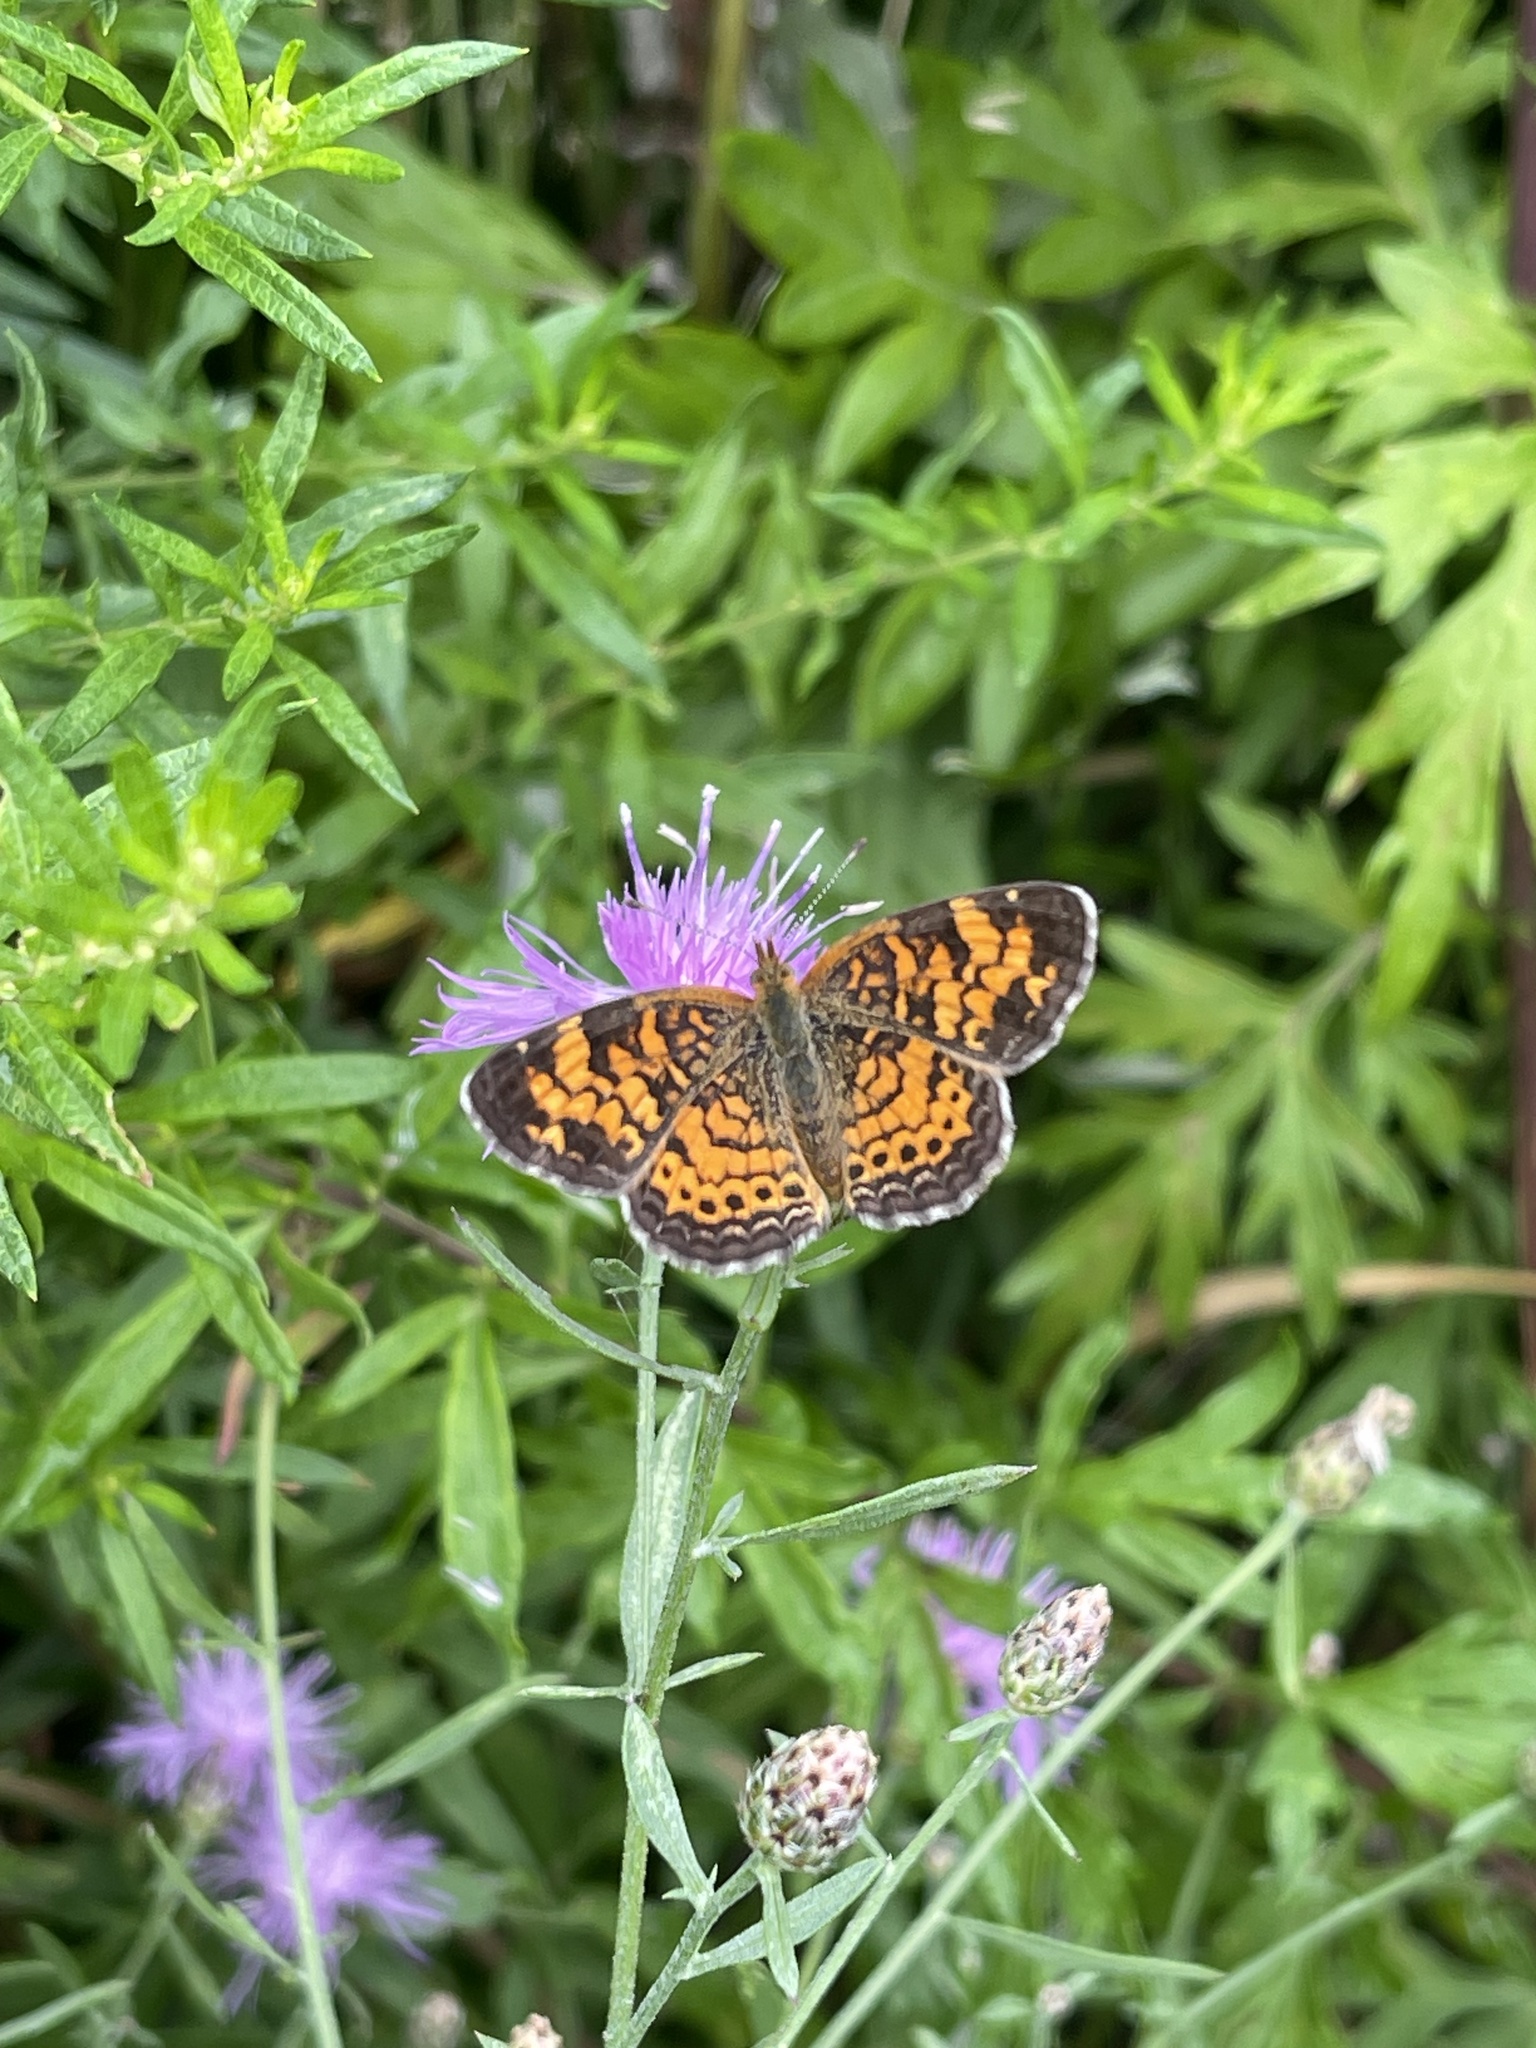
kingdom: Animalia
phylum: Arthropoda
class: Insecta
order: Lepidoptera
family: Nymphalidae
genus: Phyciodes
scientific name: Phyciodes tharos
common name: Pearl crescent
